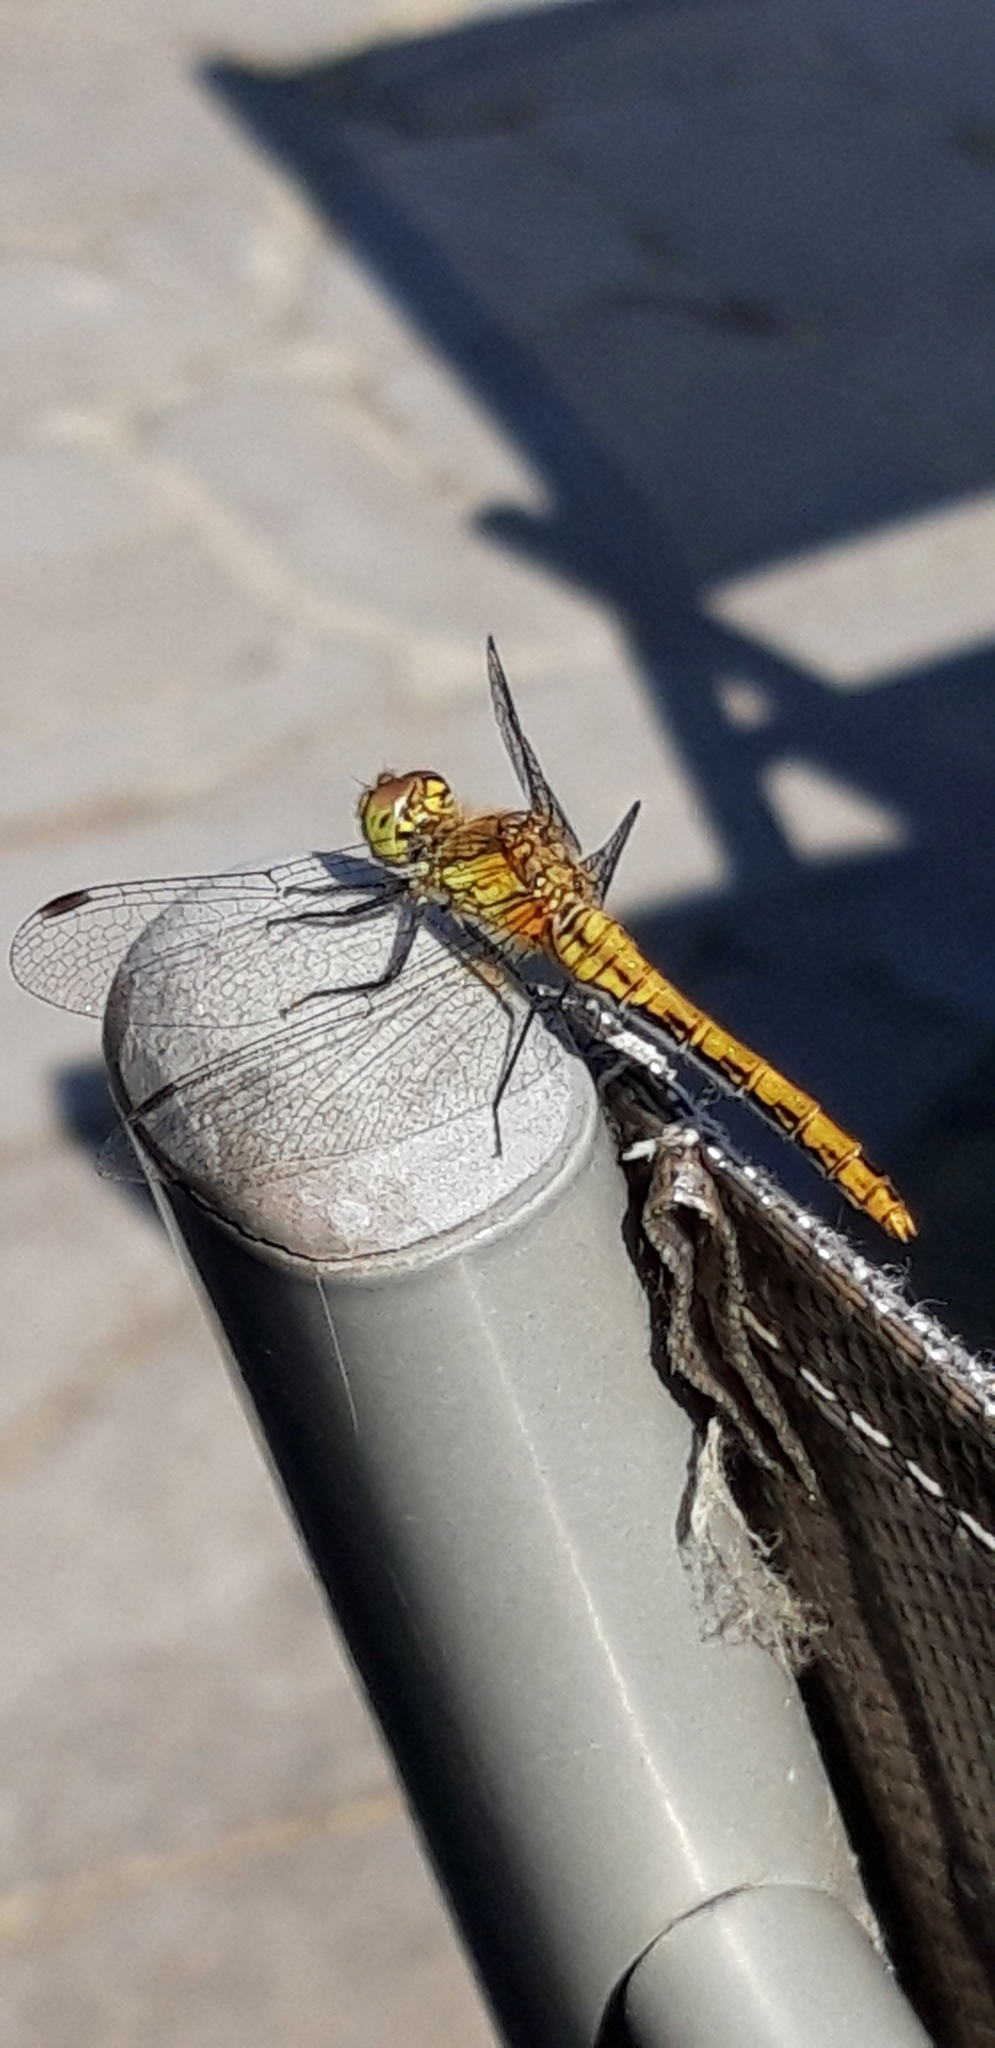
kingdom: Animalia
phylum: Arthropoda
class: Insecta
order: Odonata
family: Libellulidae
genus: Sympetrum
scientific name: Sympetrum sanguineum
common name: Ruddy darter
